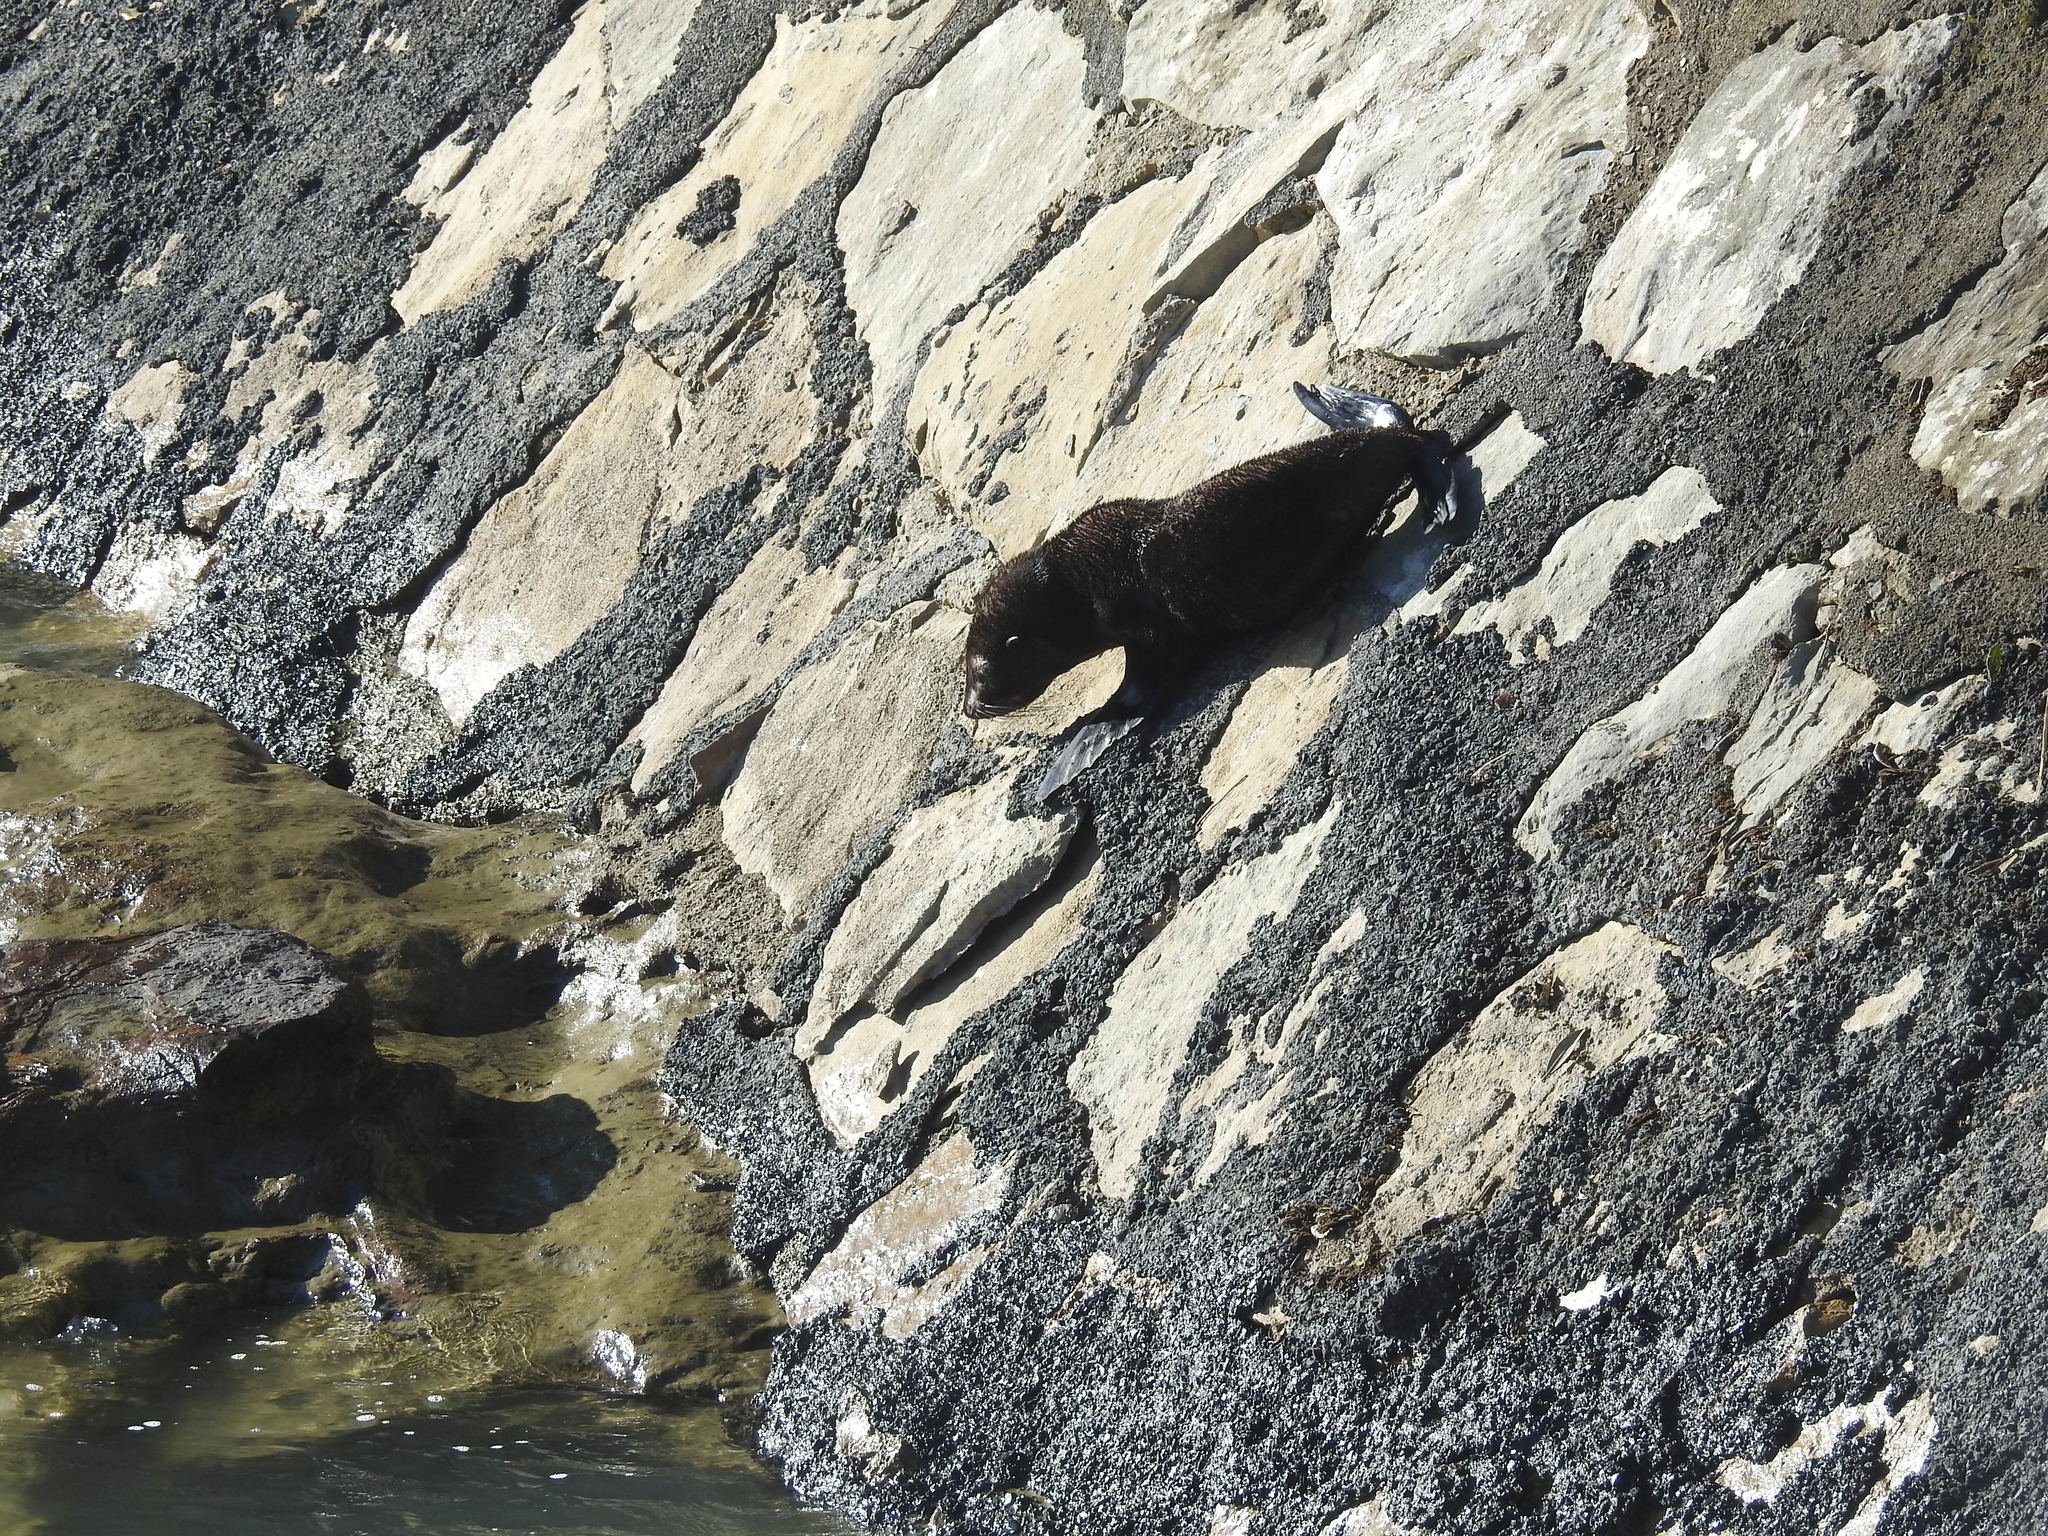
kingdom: Animalia
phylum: Chordata
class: Mammalia
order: Carnivora
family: Otariidae
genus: Arctocephalus
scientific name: Arctocephalus forsteri
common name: New zealand fur seal
